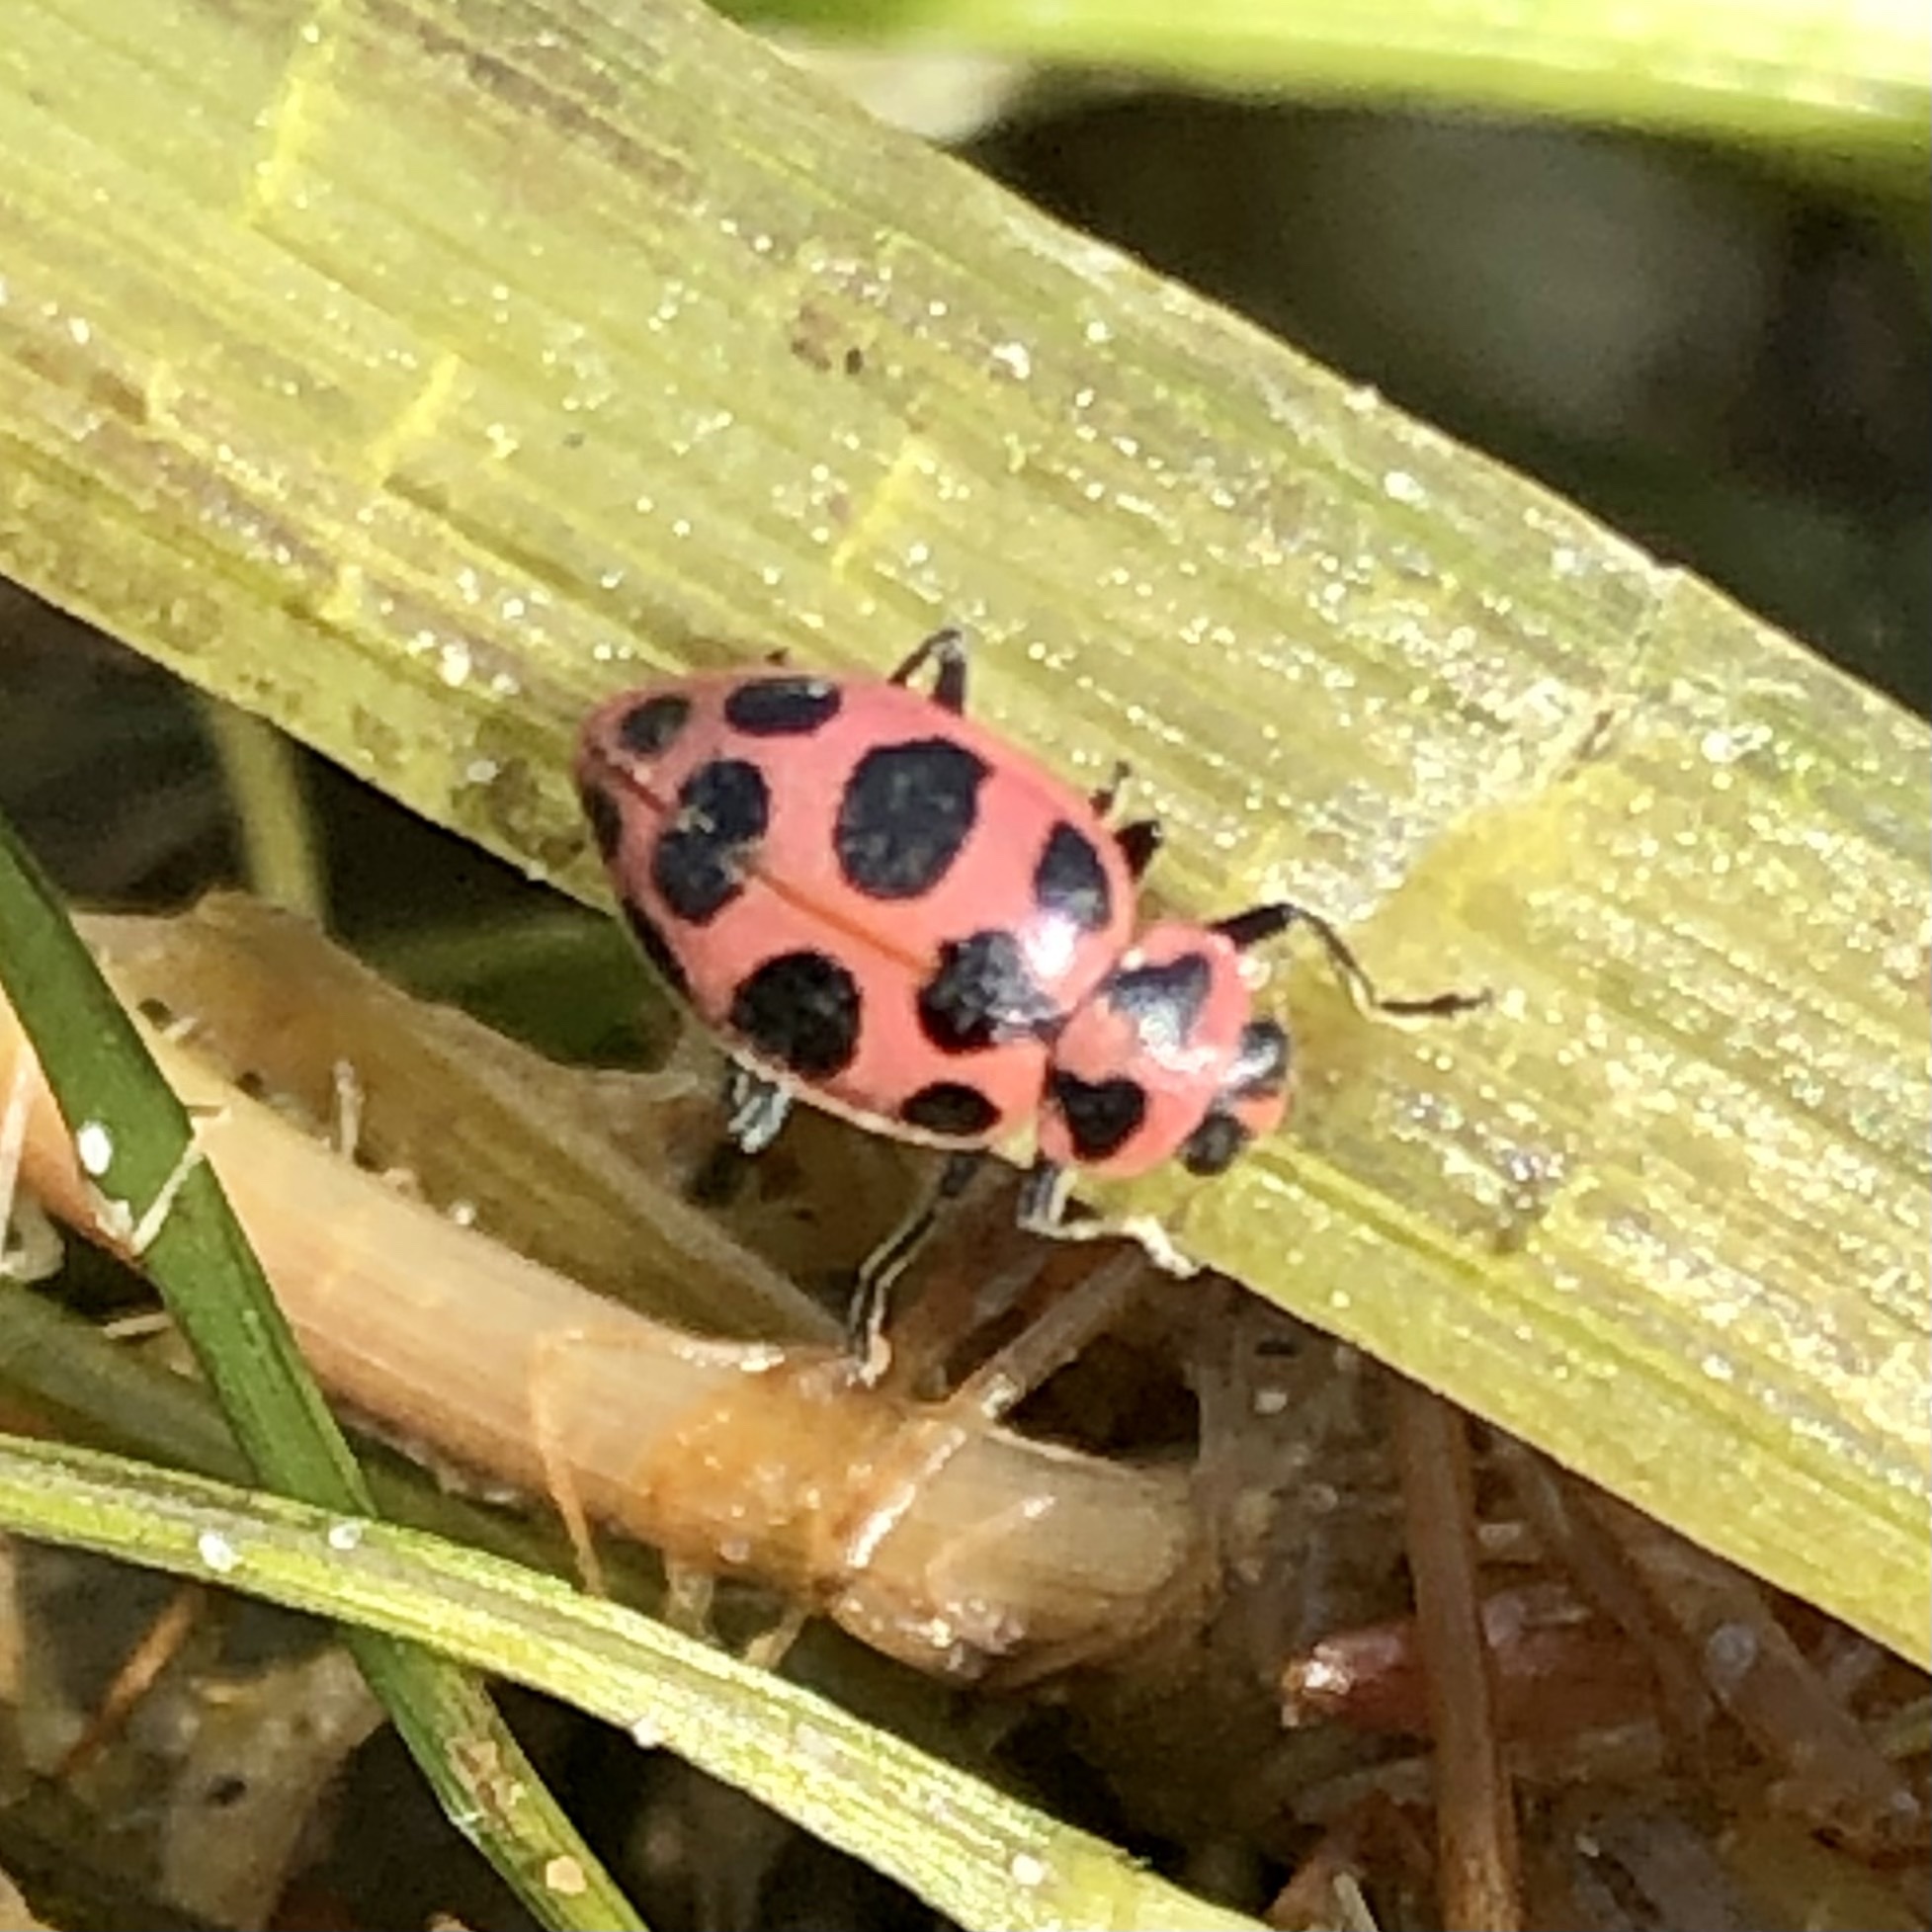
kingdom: Animalia
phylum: Arthropoda
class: Insecta
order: Coleoptera
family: Coccinellidae
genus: Coleomegilla
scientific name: Coleomegilla maculata
